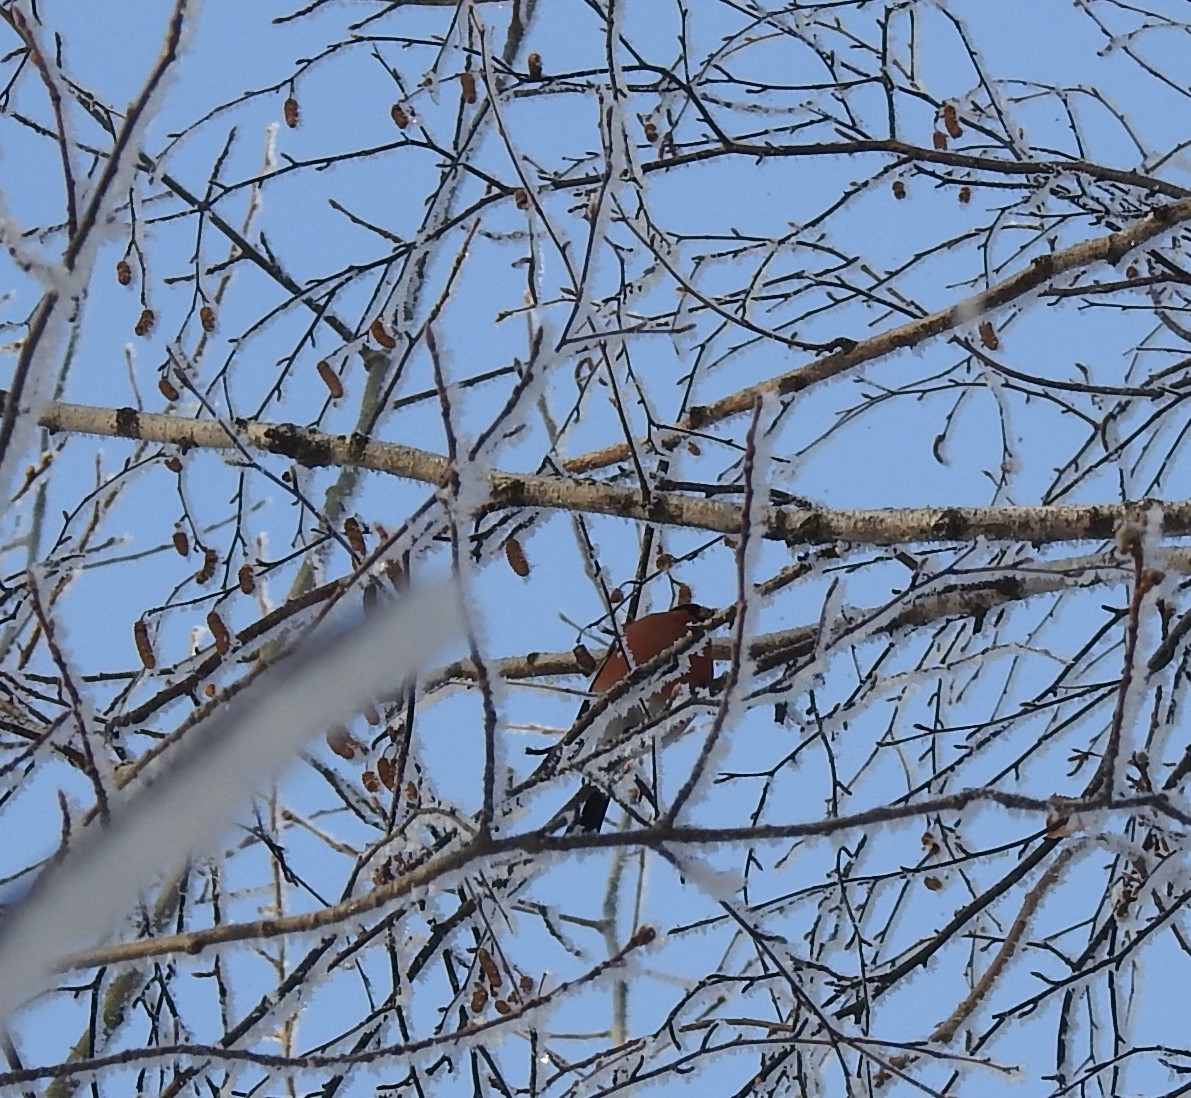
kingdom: Animalia
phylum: Chordata
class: Aves
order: Passeriformes
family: Fringillidae
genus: Pyrrhula
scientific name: Pyrrhula pyrrhula
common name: Eurasian bullfinch
